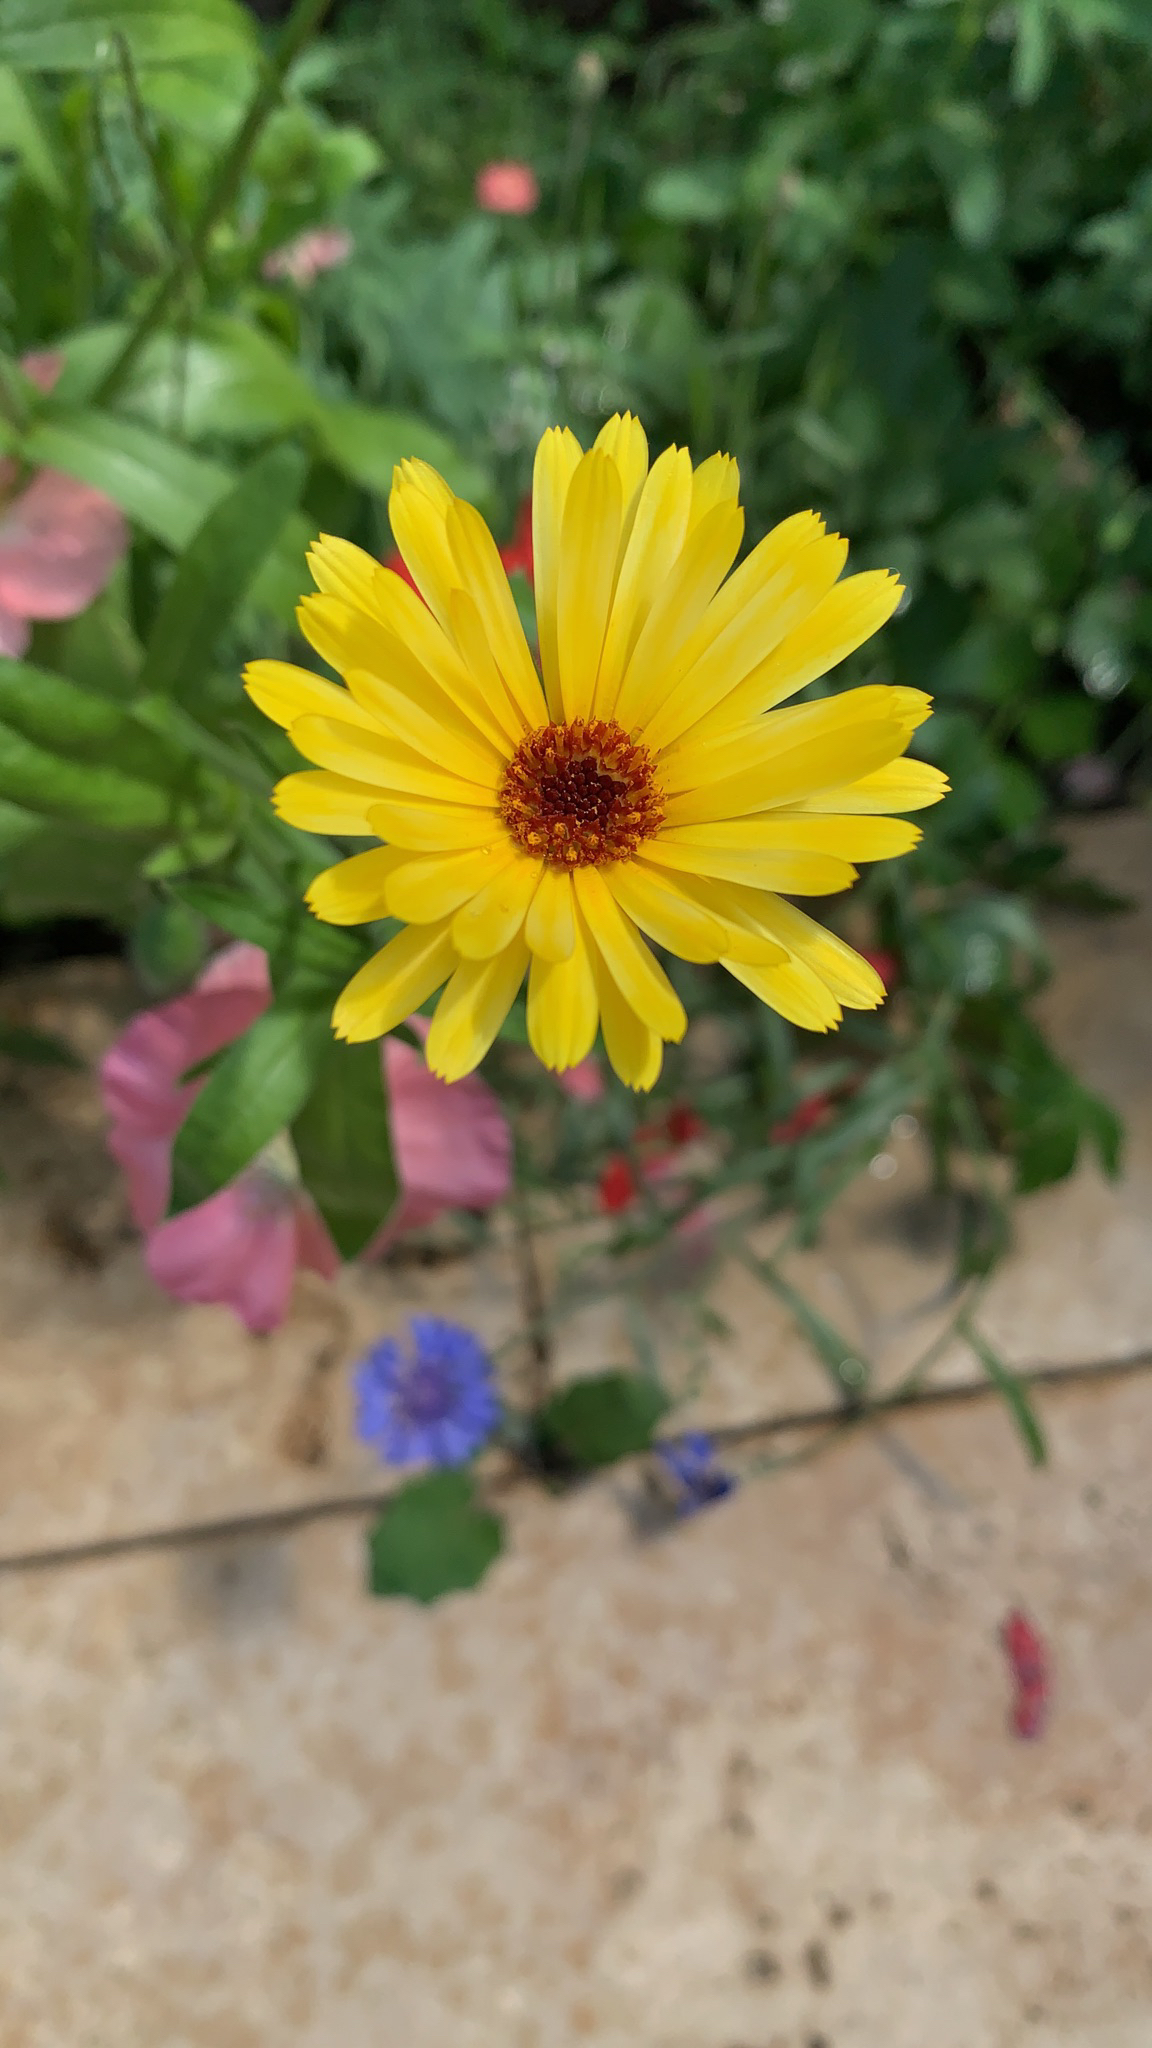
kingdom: Plantae
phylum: Tracheophyta
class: Magnoliopsida
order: Asterales
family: Asteraceae
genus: Calendula
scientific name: Calendula officinalis
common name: Pot marigold
